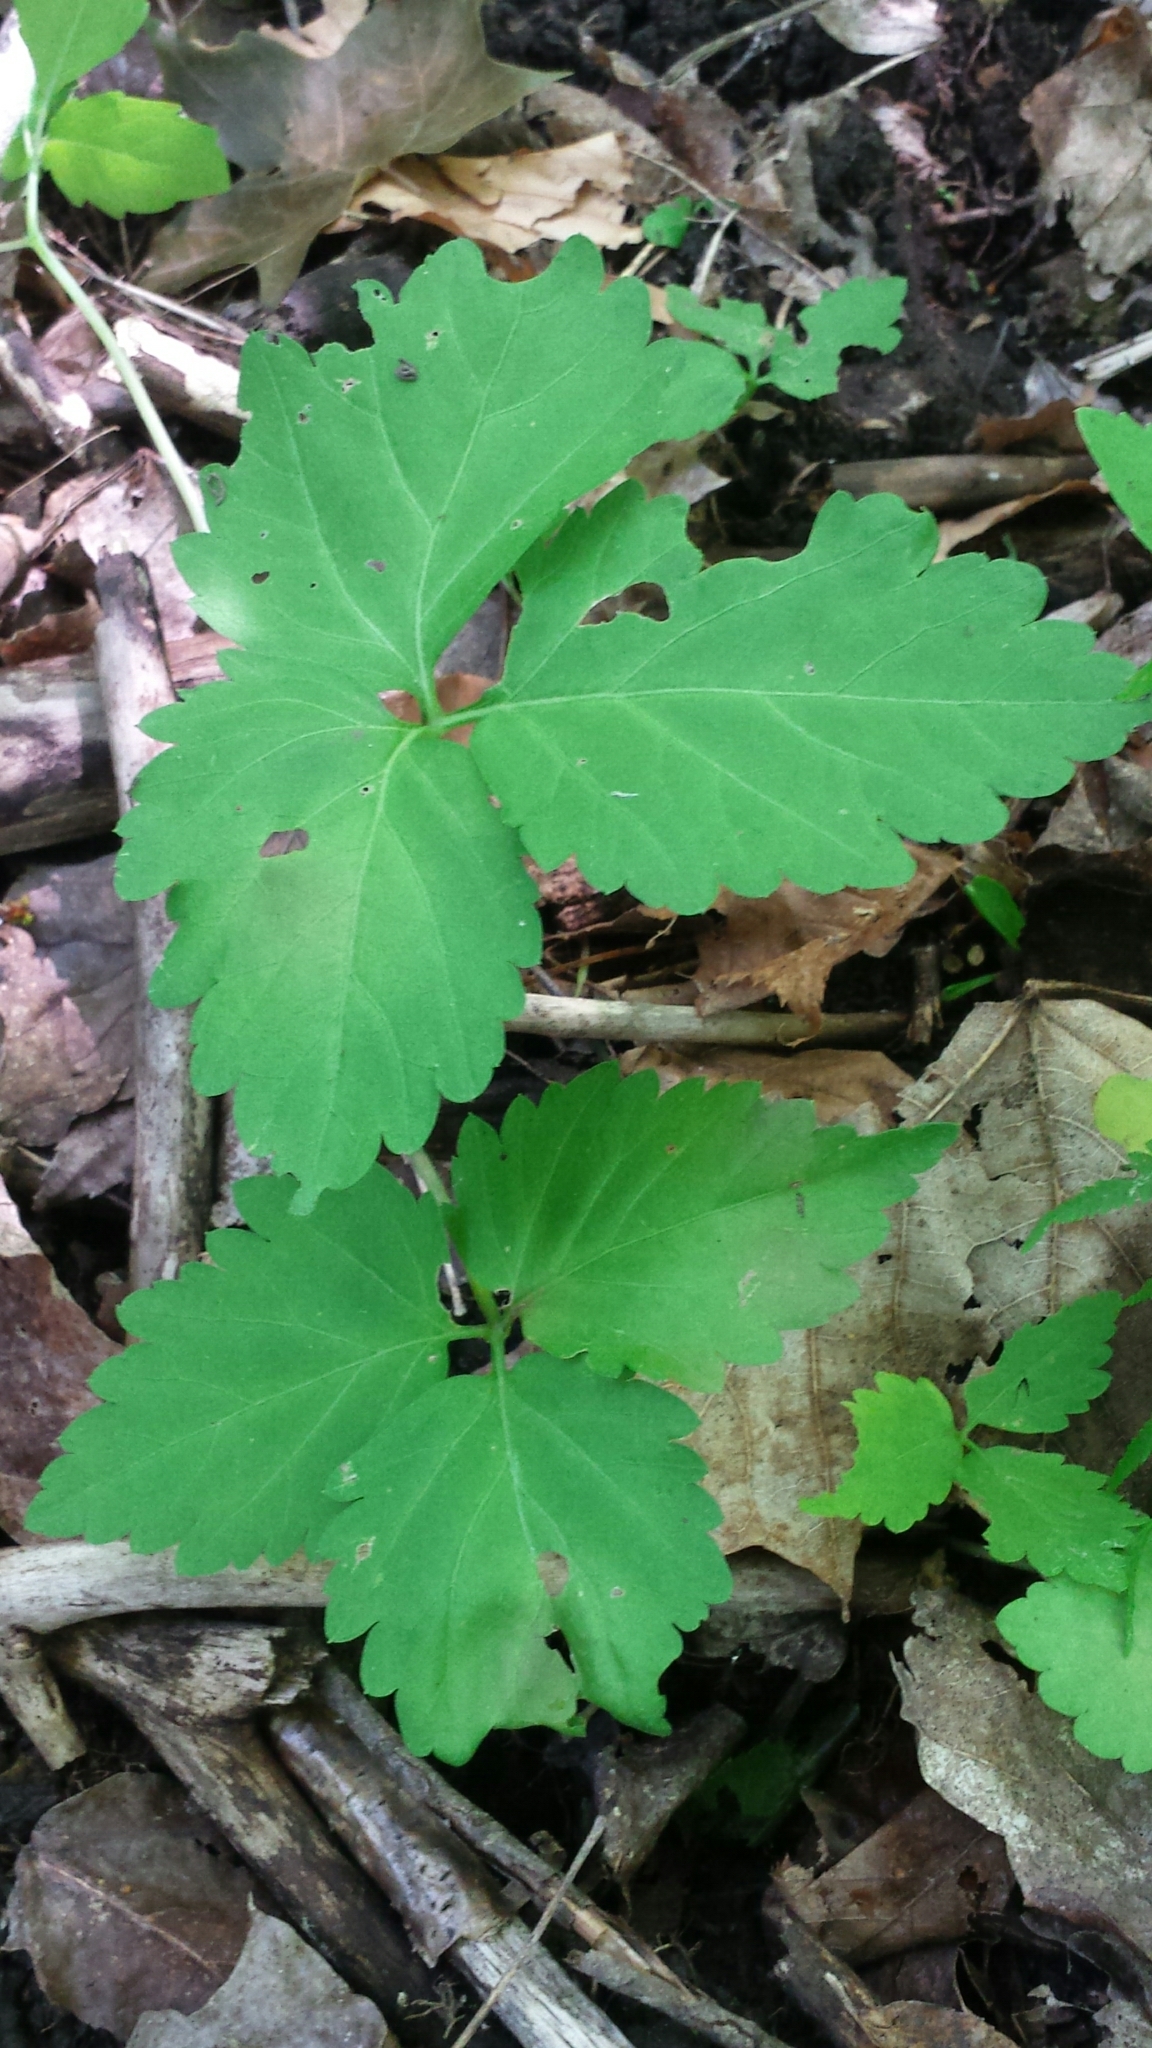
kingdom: Plantae
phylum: Tracheophyta
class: Magnoliopsida
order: Brassicales
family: Brassicaceae
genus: Cardamine
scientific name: Cardamine diphylla
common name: Broad-leaved toothwort
